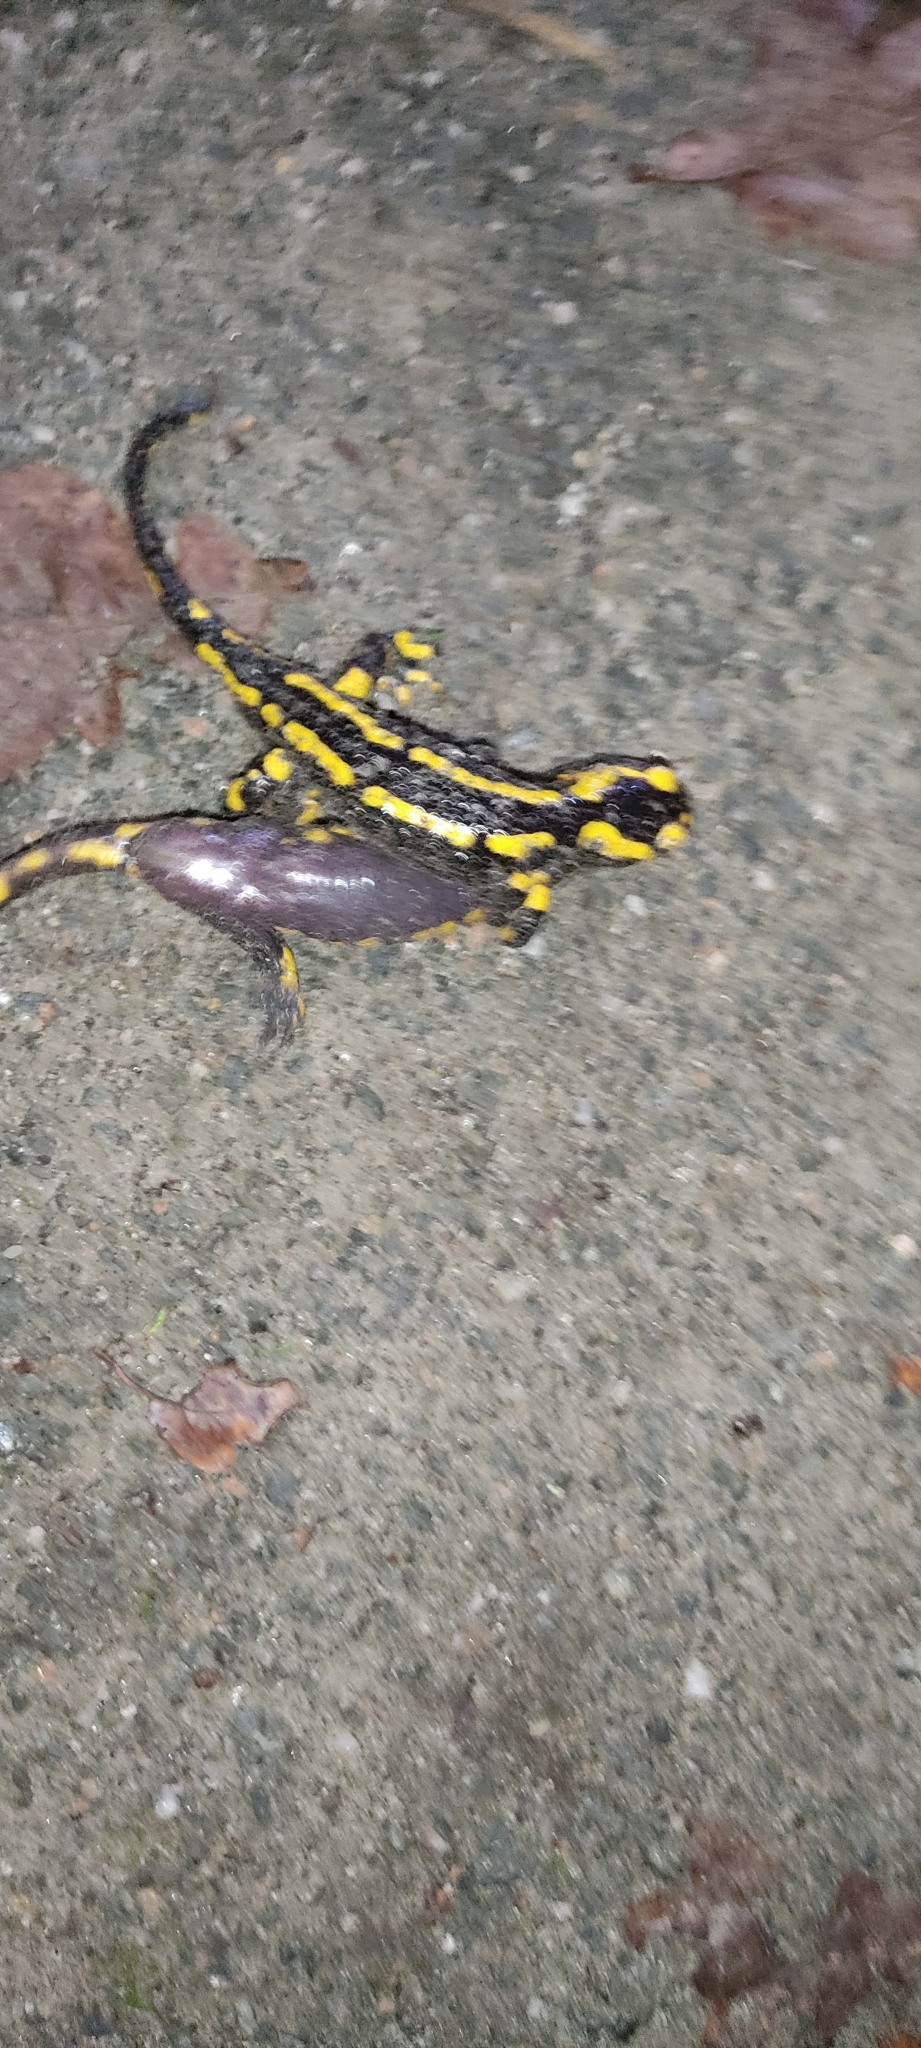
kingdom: Animalia
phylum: Chordata
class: Amphibia
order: Caudata
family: Salamandridae
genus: Salamandra
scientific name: Salamandra salamandra
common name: Fire salamander
